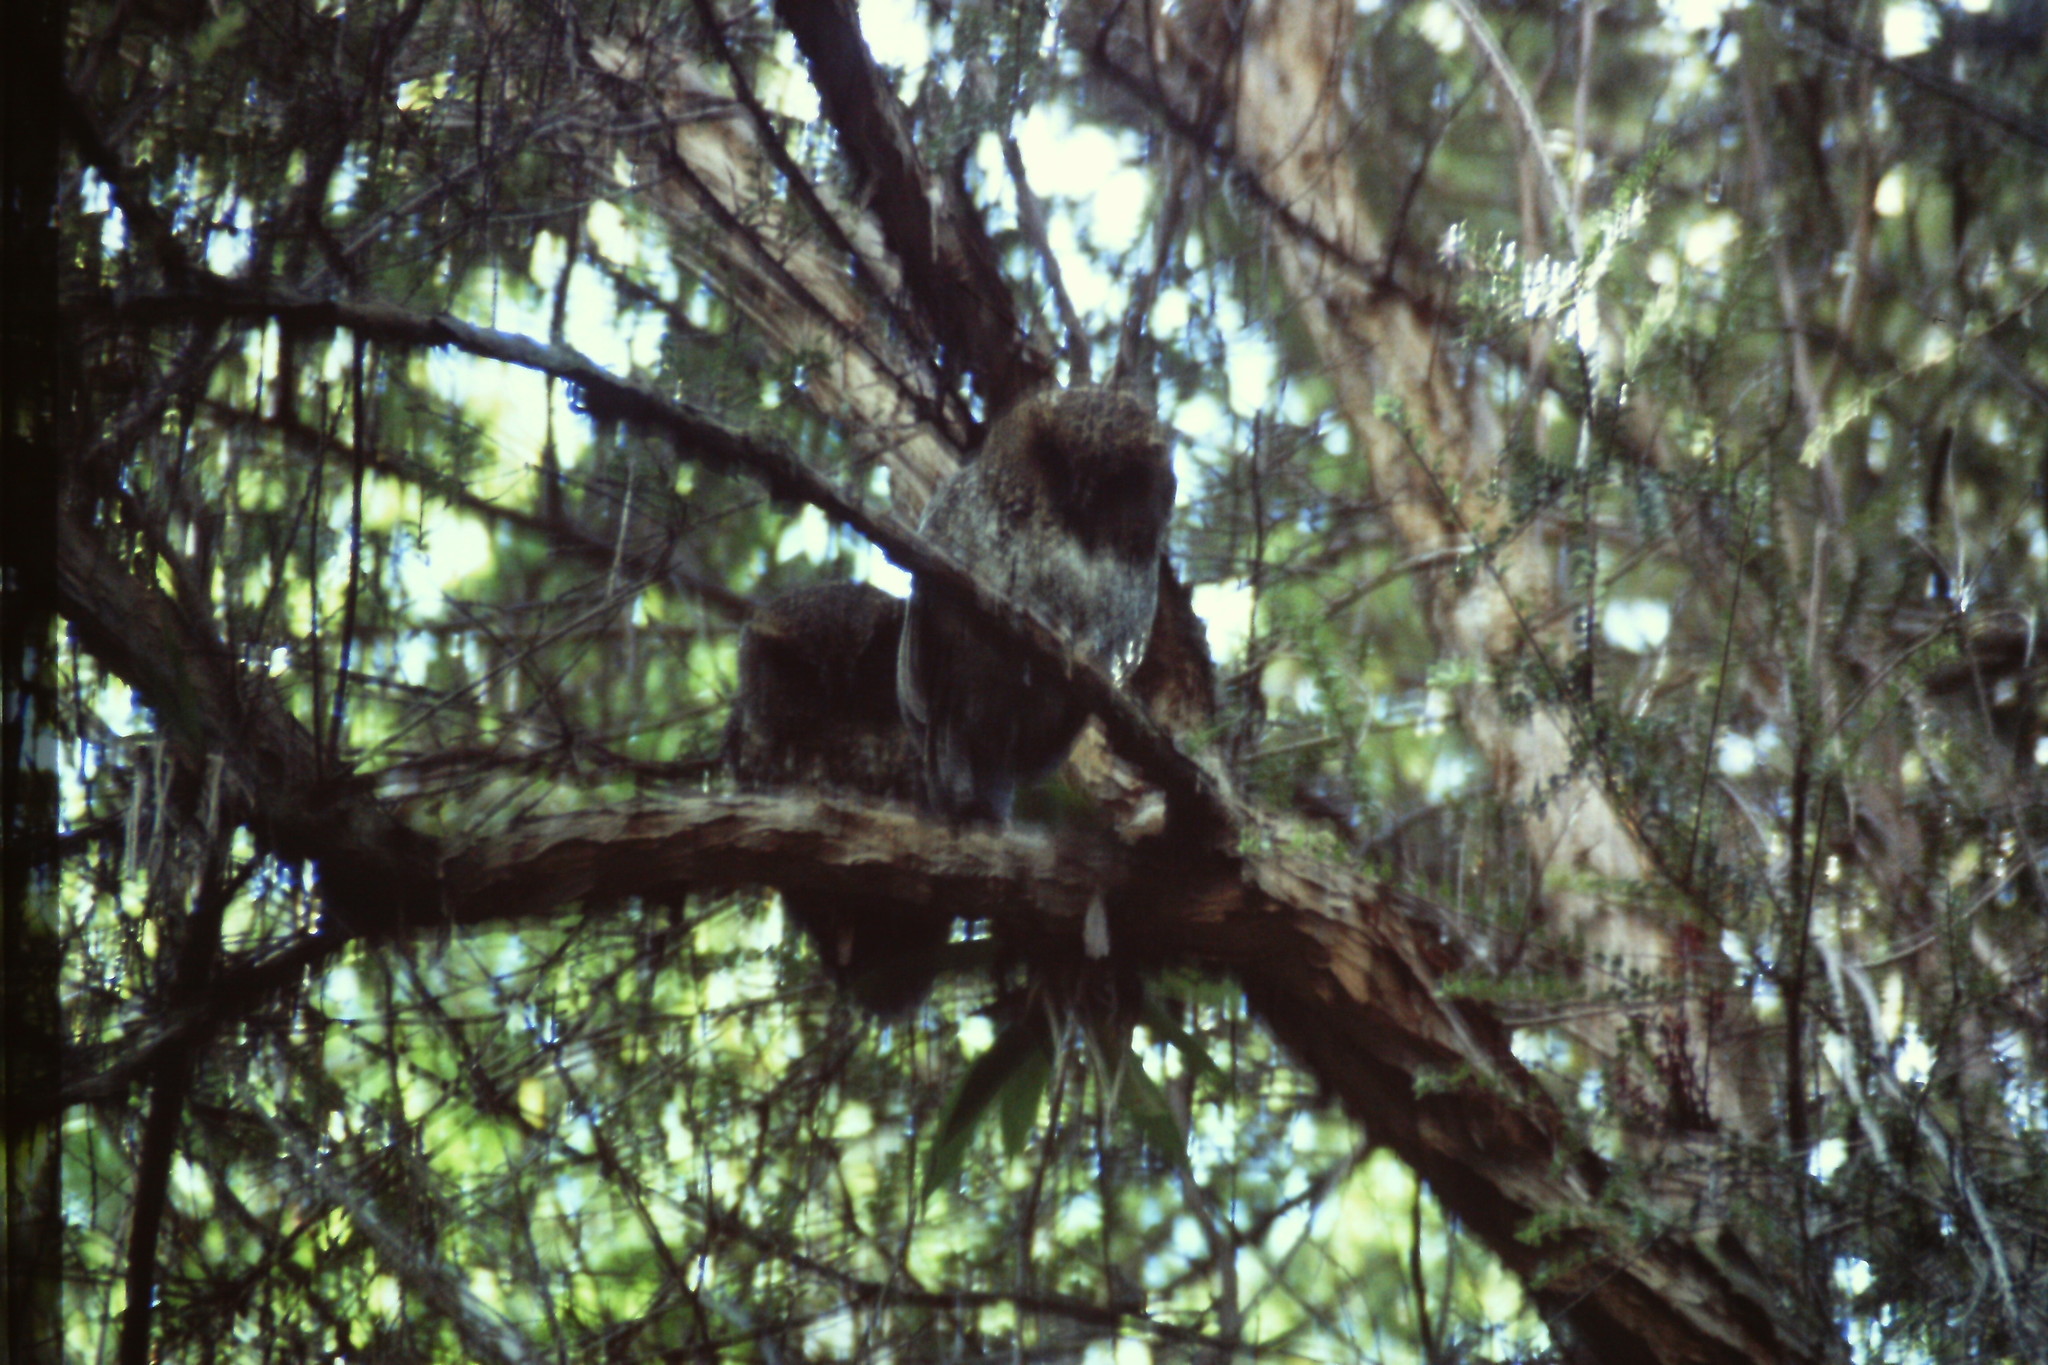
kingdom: Animalia
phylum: Chordata
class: Aves
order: Strigiformes
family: Strigidae
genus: Megascops
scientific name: Megascops clarkii
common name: Bare-shanked screech-owl
